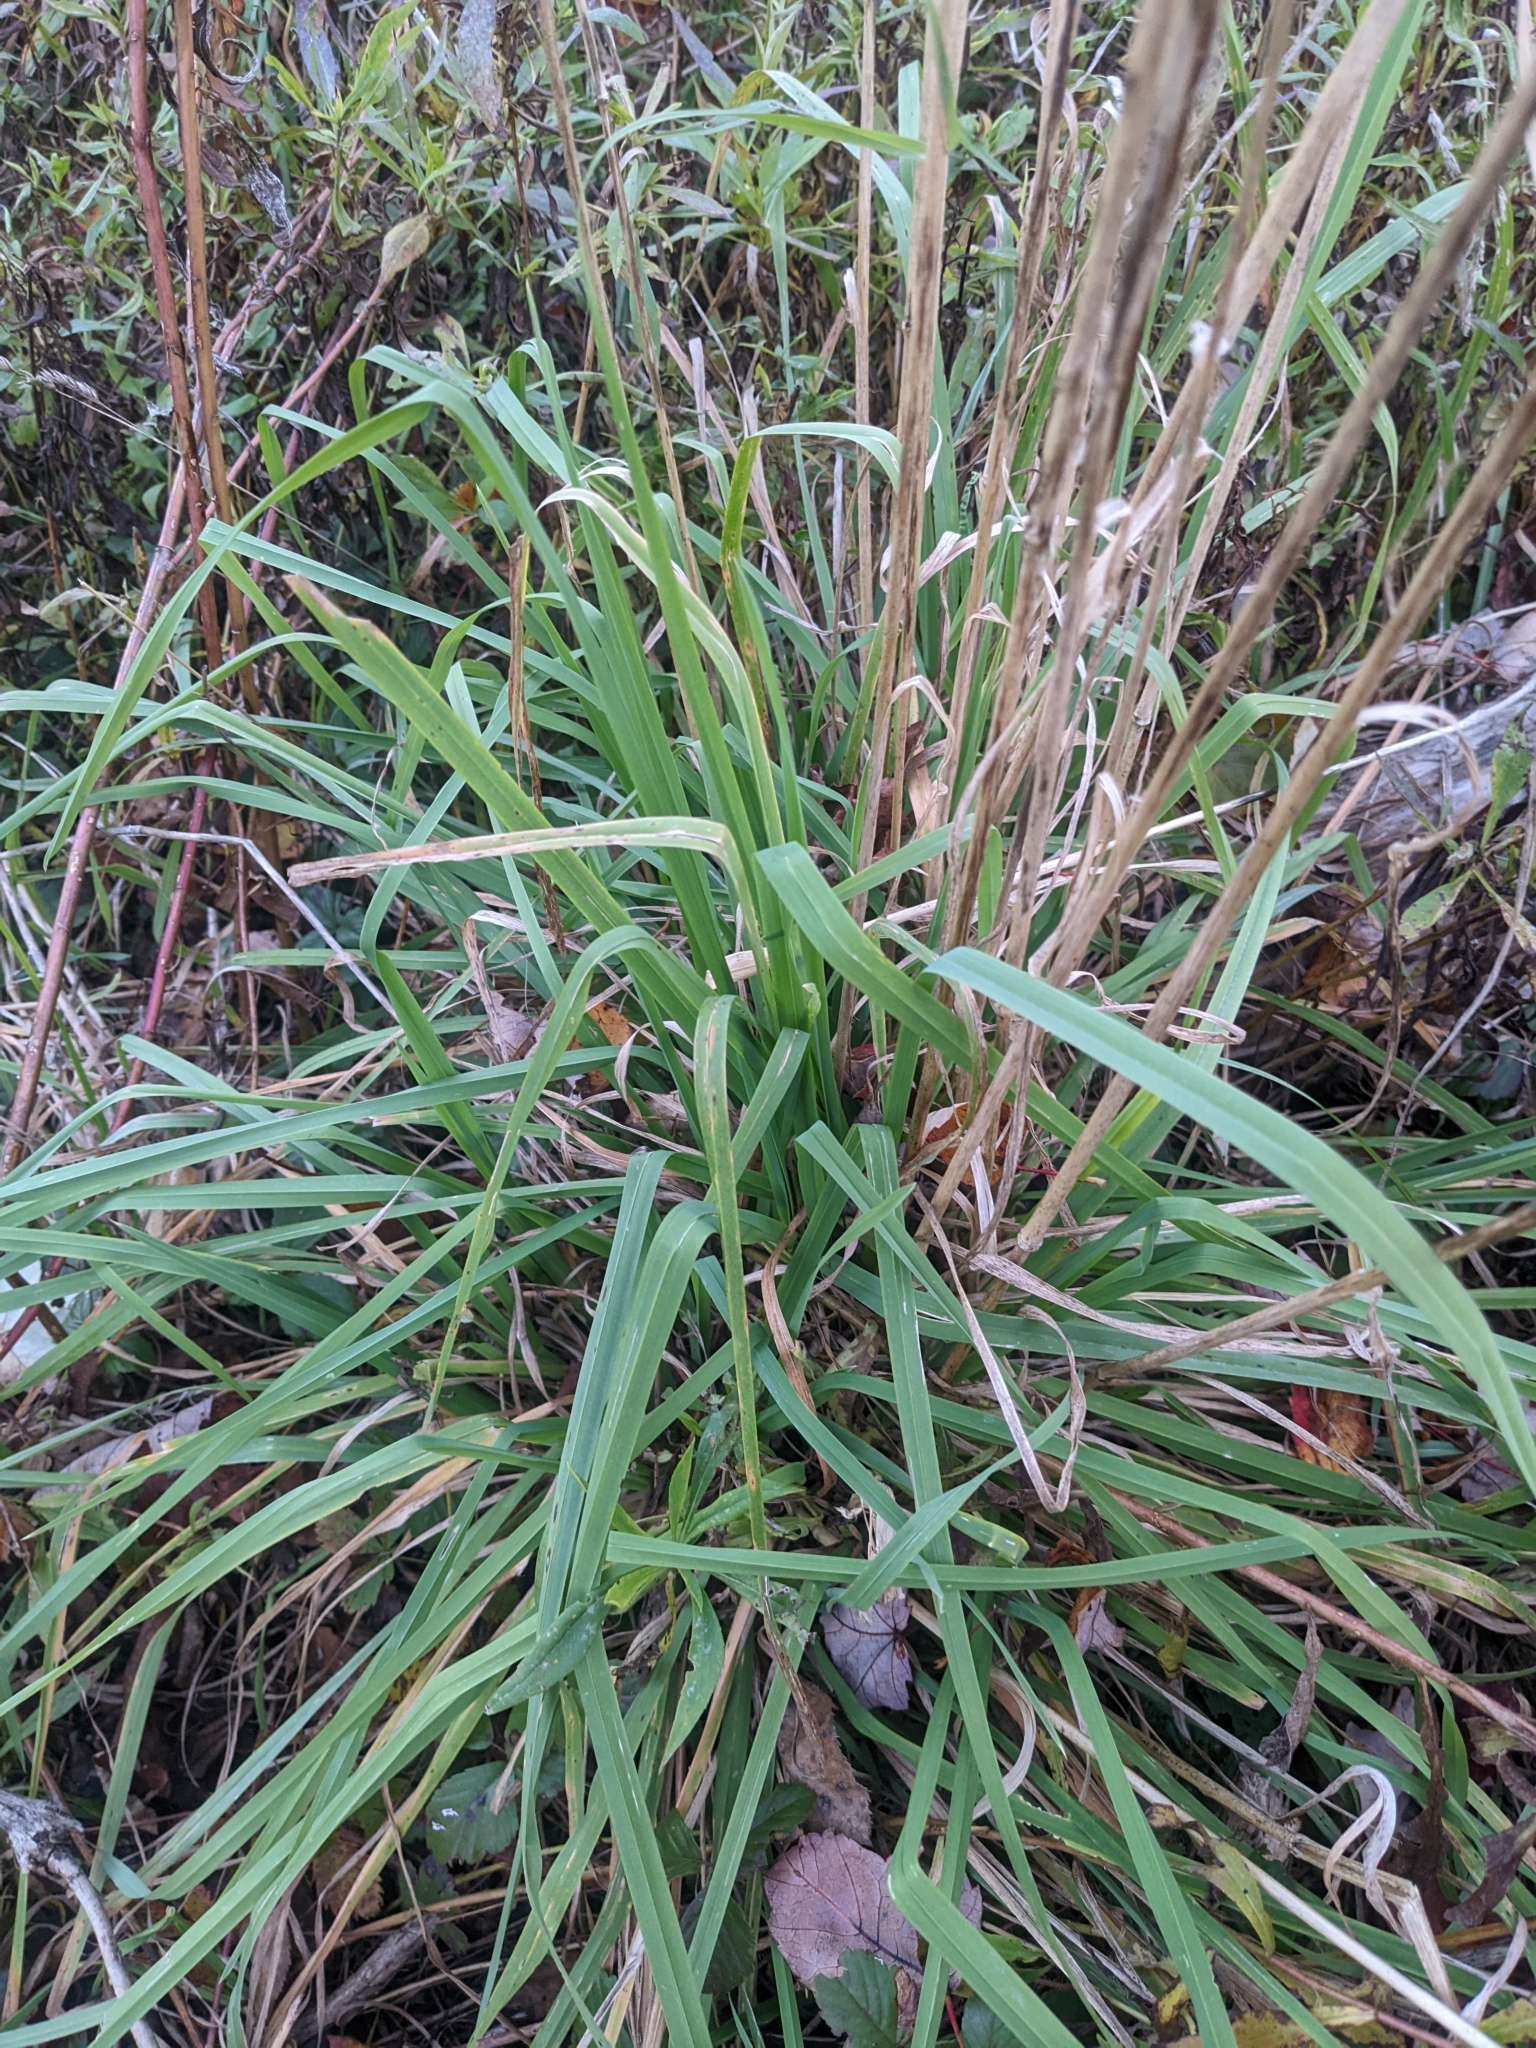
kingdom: Plantae
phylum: Tracheophyta
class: Liliopsida
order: Poales
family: Poaceae
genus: Dactylis
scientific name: Dactylis glomerata
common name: Orchardgrass
